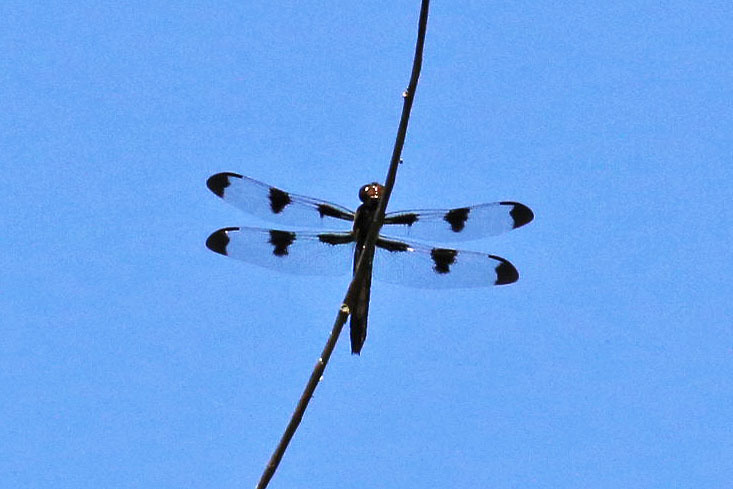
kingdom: Animalia
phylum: Arthropoda
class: Insecta
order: Odonata
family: Libellulidae
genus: Libellula
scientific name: Libellula pulchella
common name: Twelve-spotted skimmer
